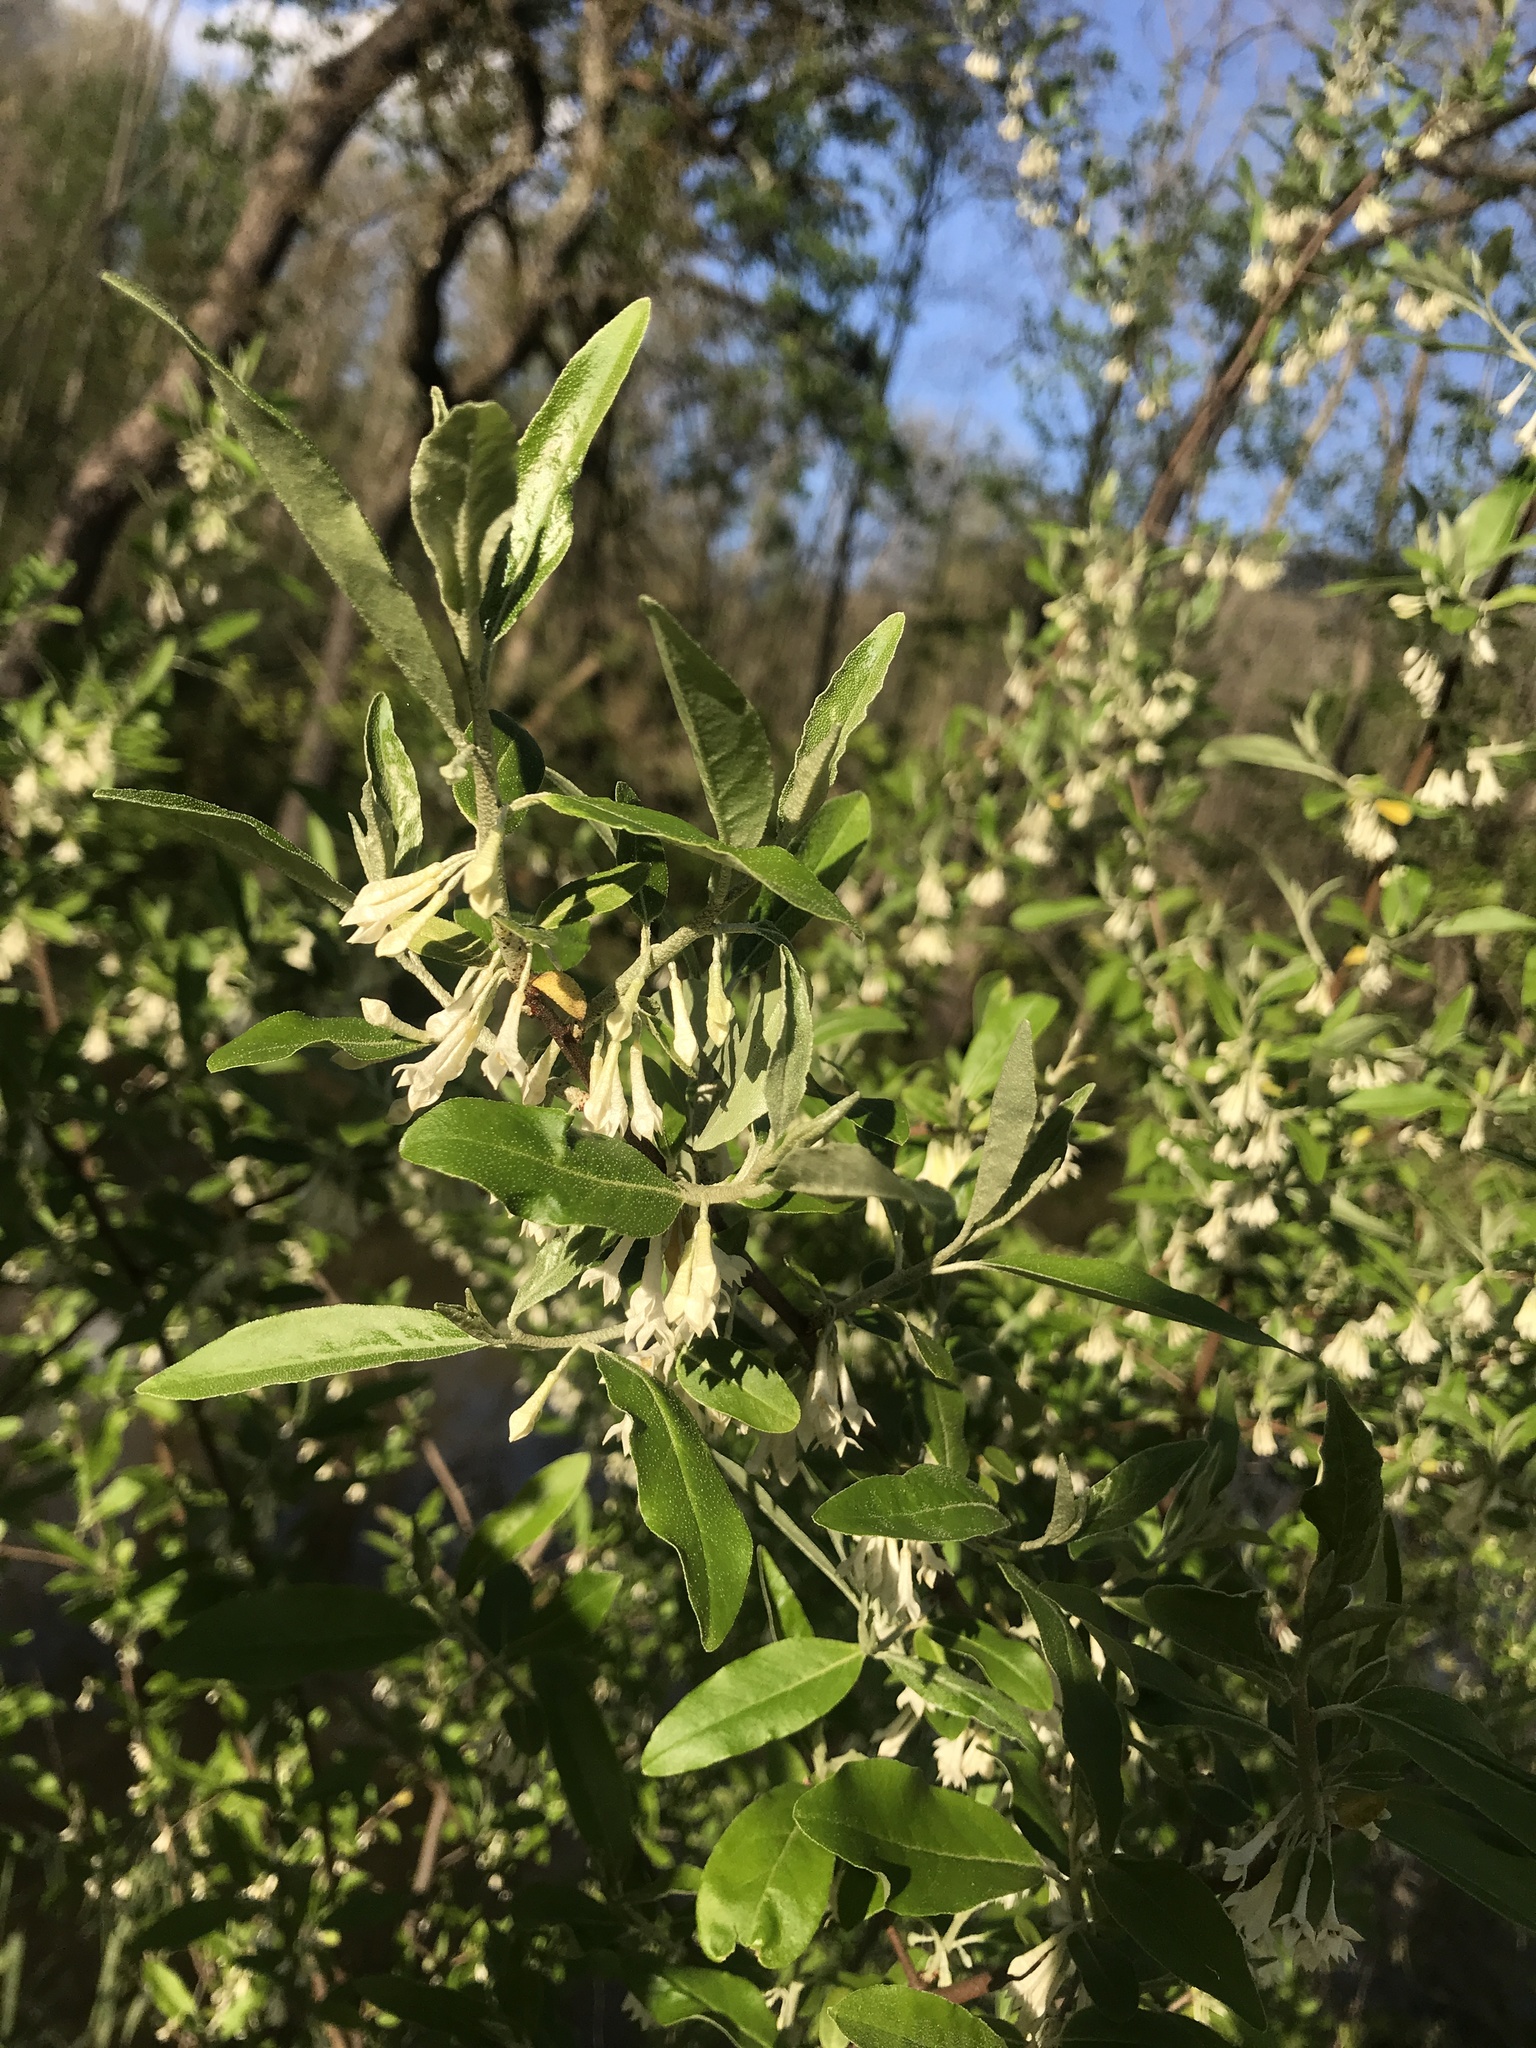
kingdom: Plantae
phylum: Tracheophyta
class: Magnoliopsida
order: Rosales
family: Elaeagnaceae
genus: Elaeagnus
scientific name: Elaeagnus umbellata
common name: Autumn olive
